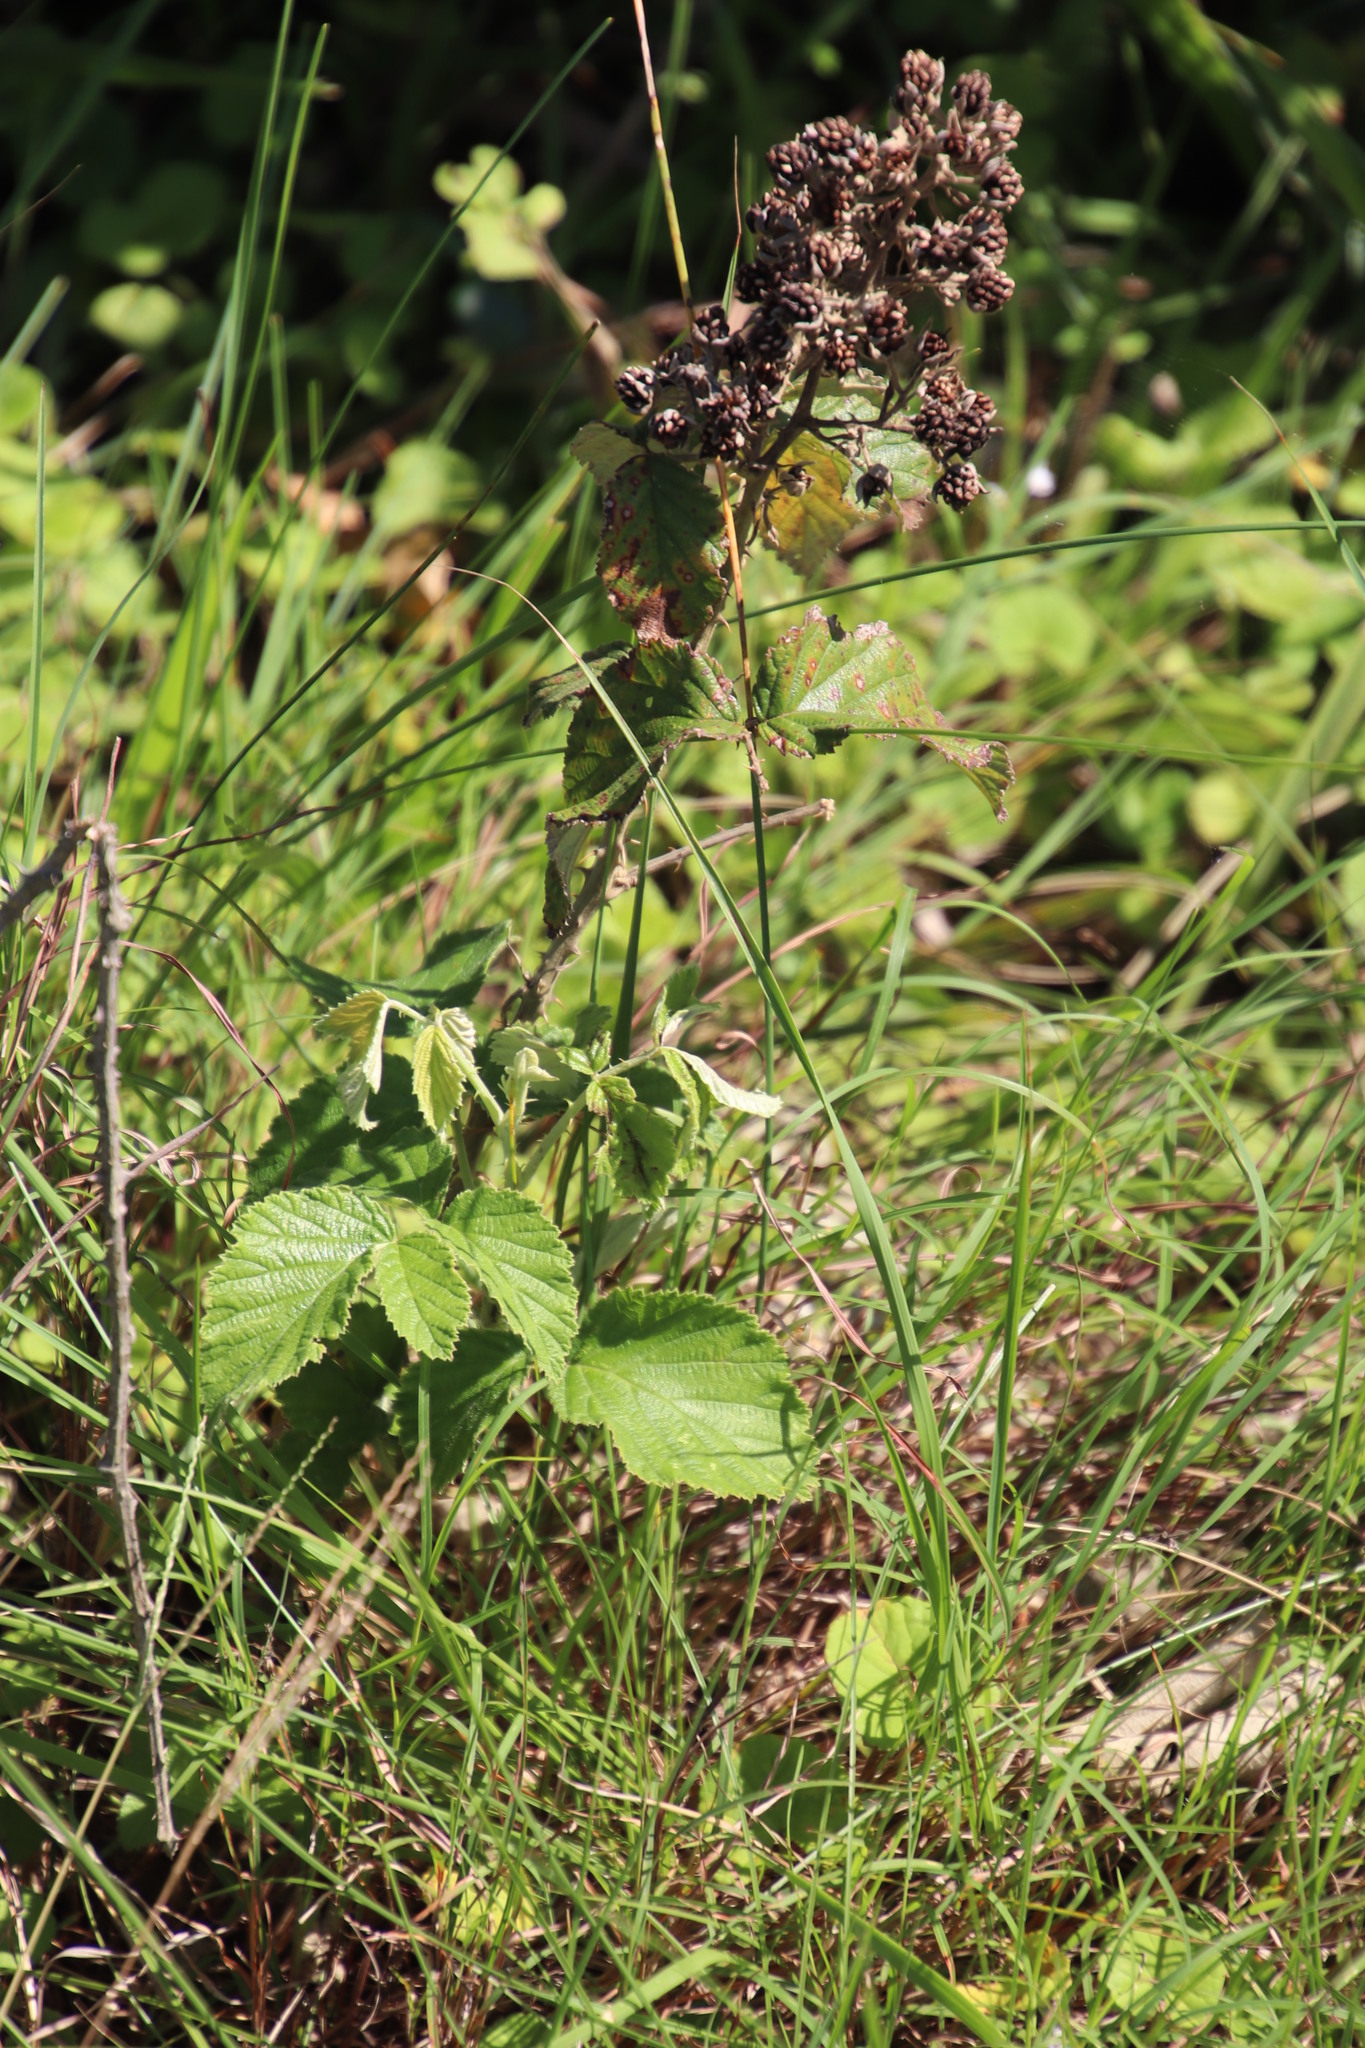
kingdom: Plantae
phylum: Tracheophyta
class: Magnoliopsida
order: Rosales
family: Rosaceae
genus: Rubus
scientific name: Rubus rigidus
